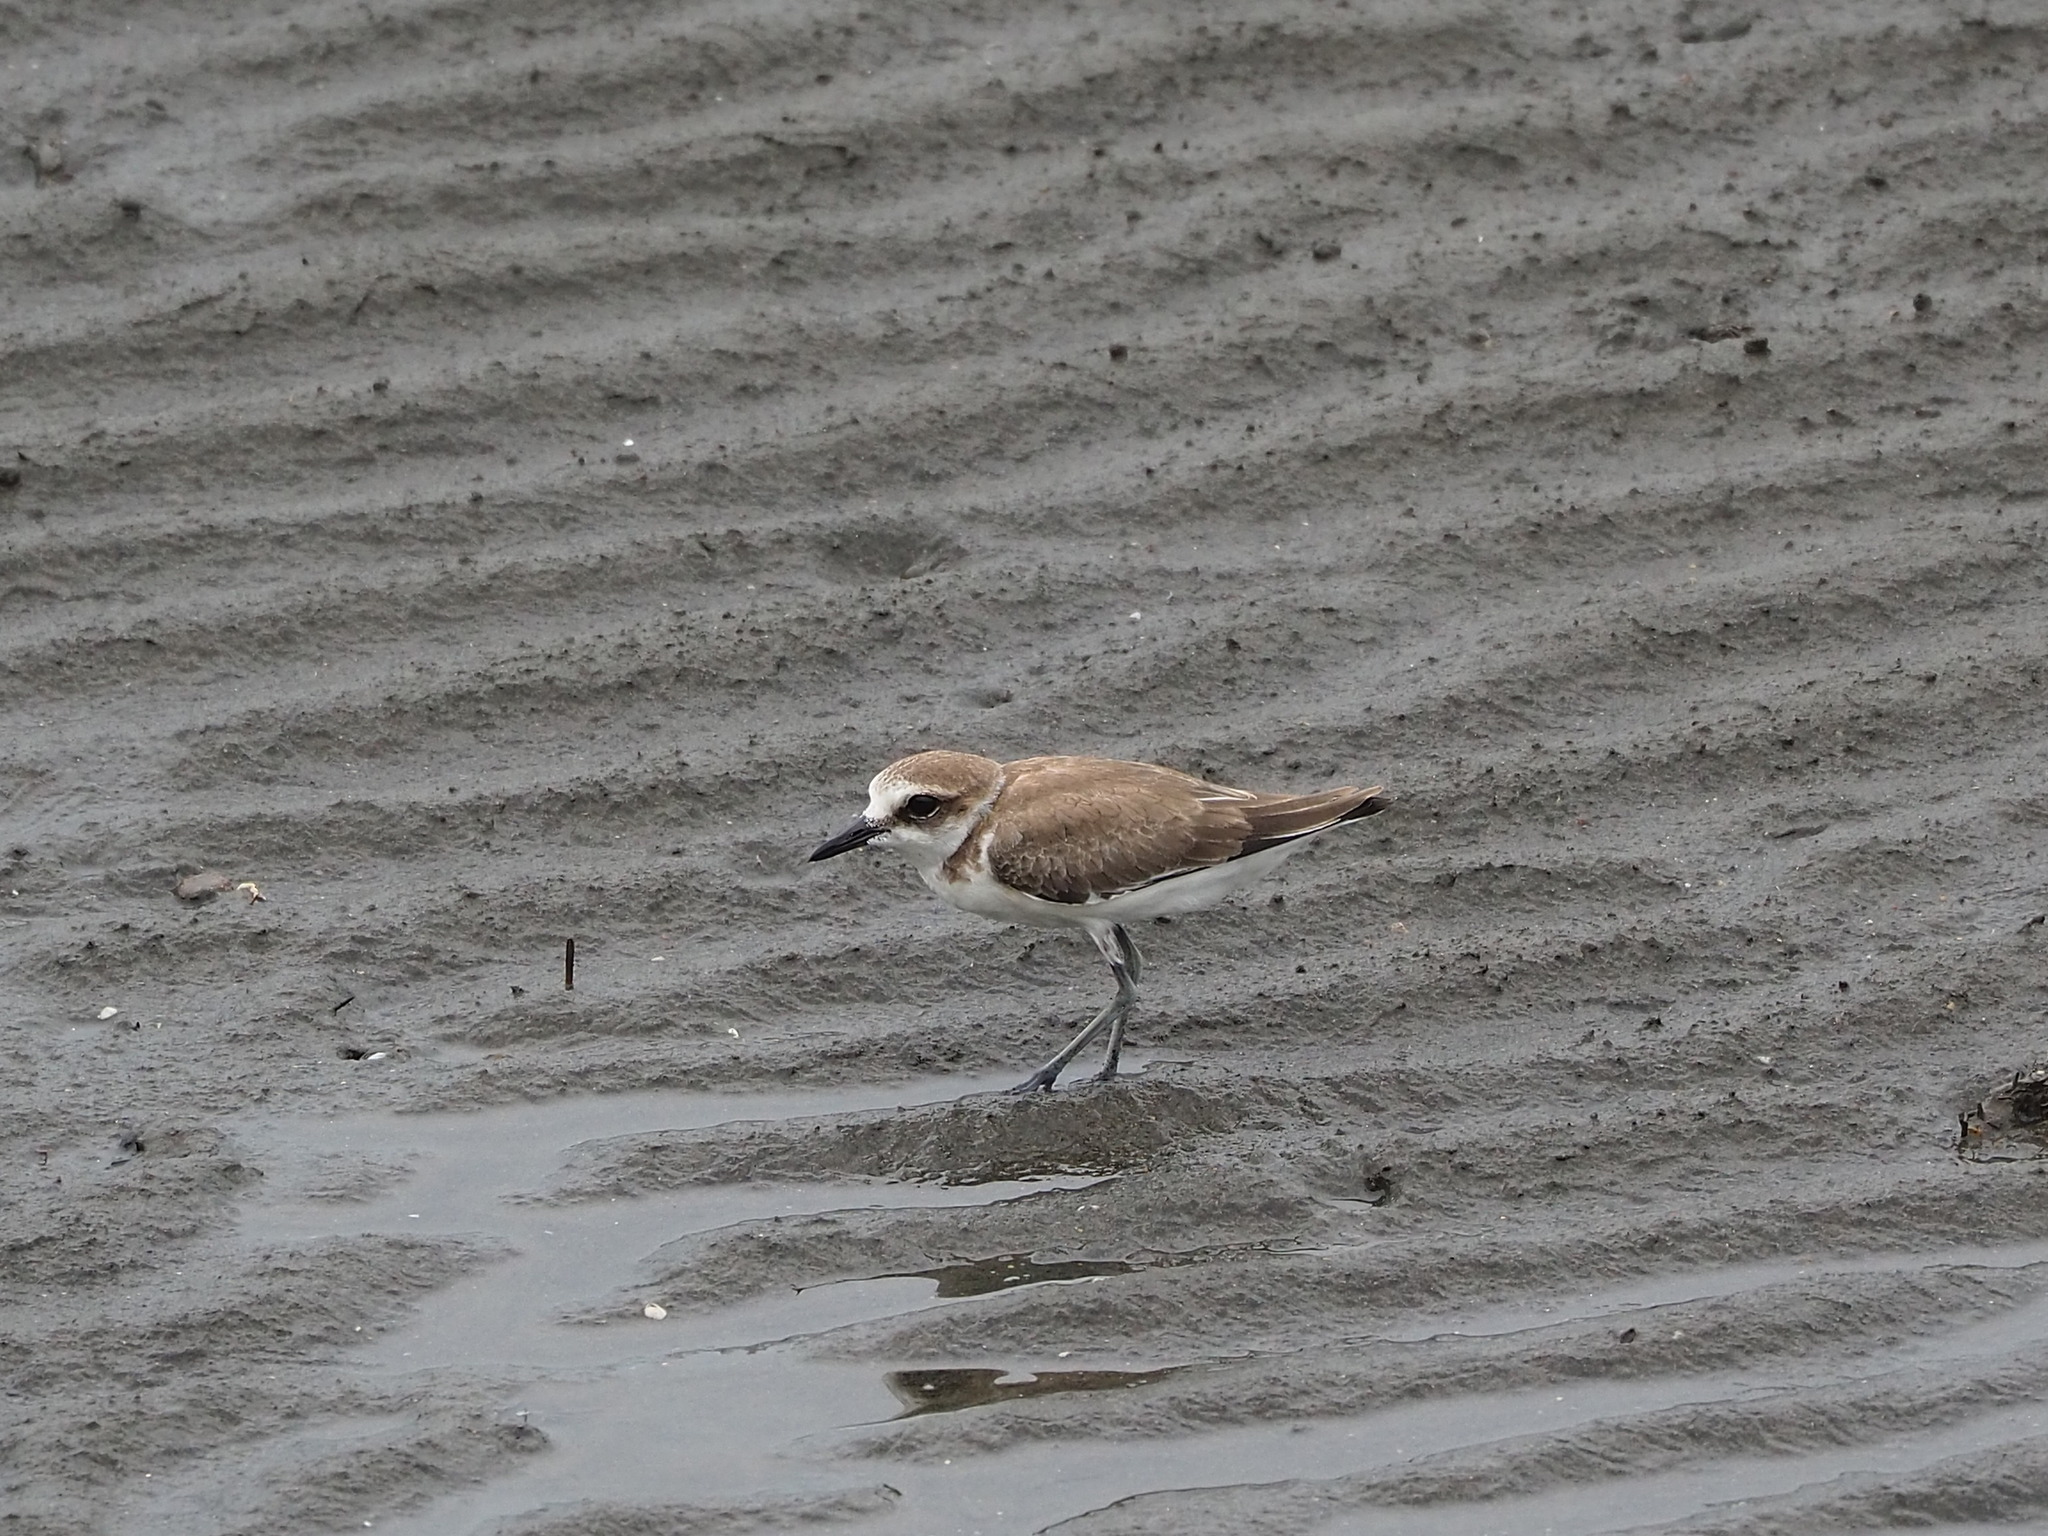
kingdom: Animalia
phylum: Chordata
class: Aves
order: Charadriiformes
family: Charadriidae
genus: Charadrius
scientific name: Charadrius alexandrinus
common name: Kentish plover
